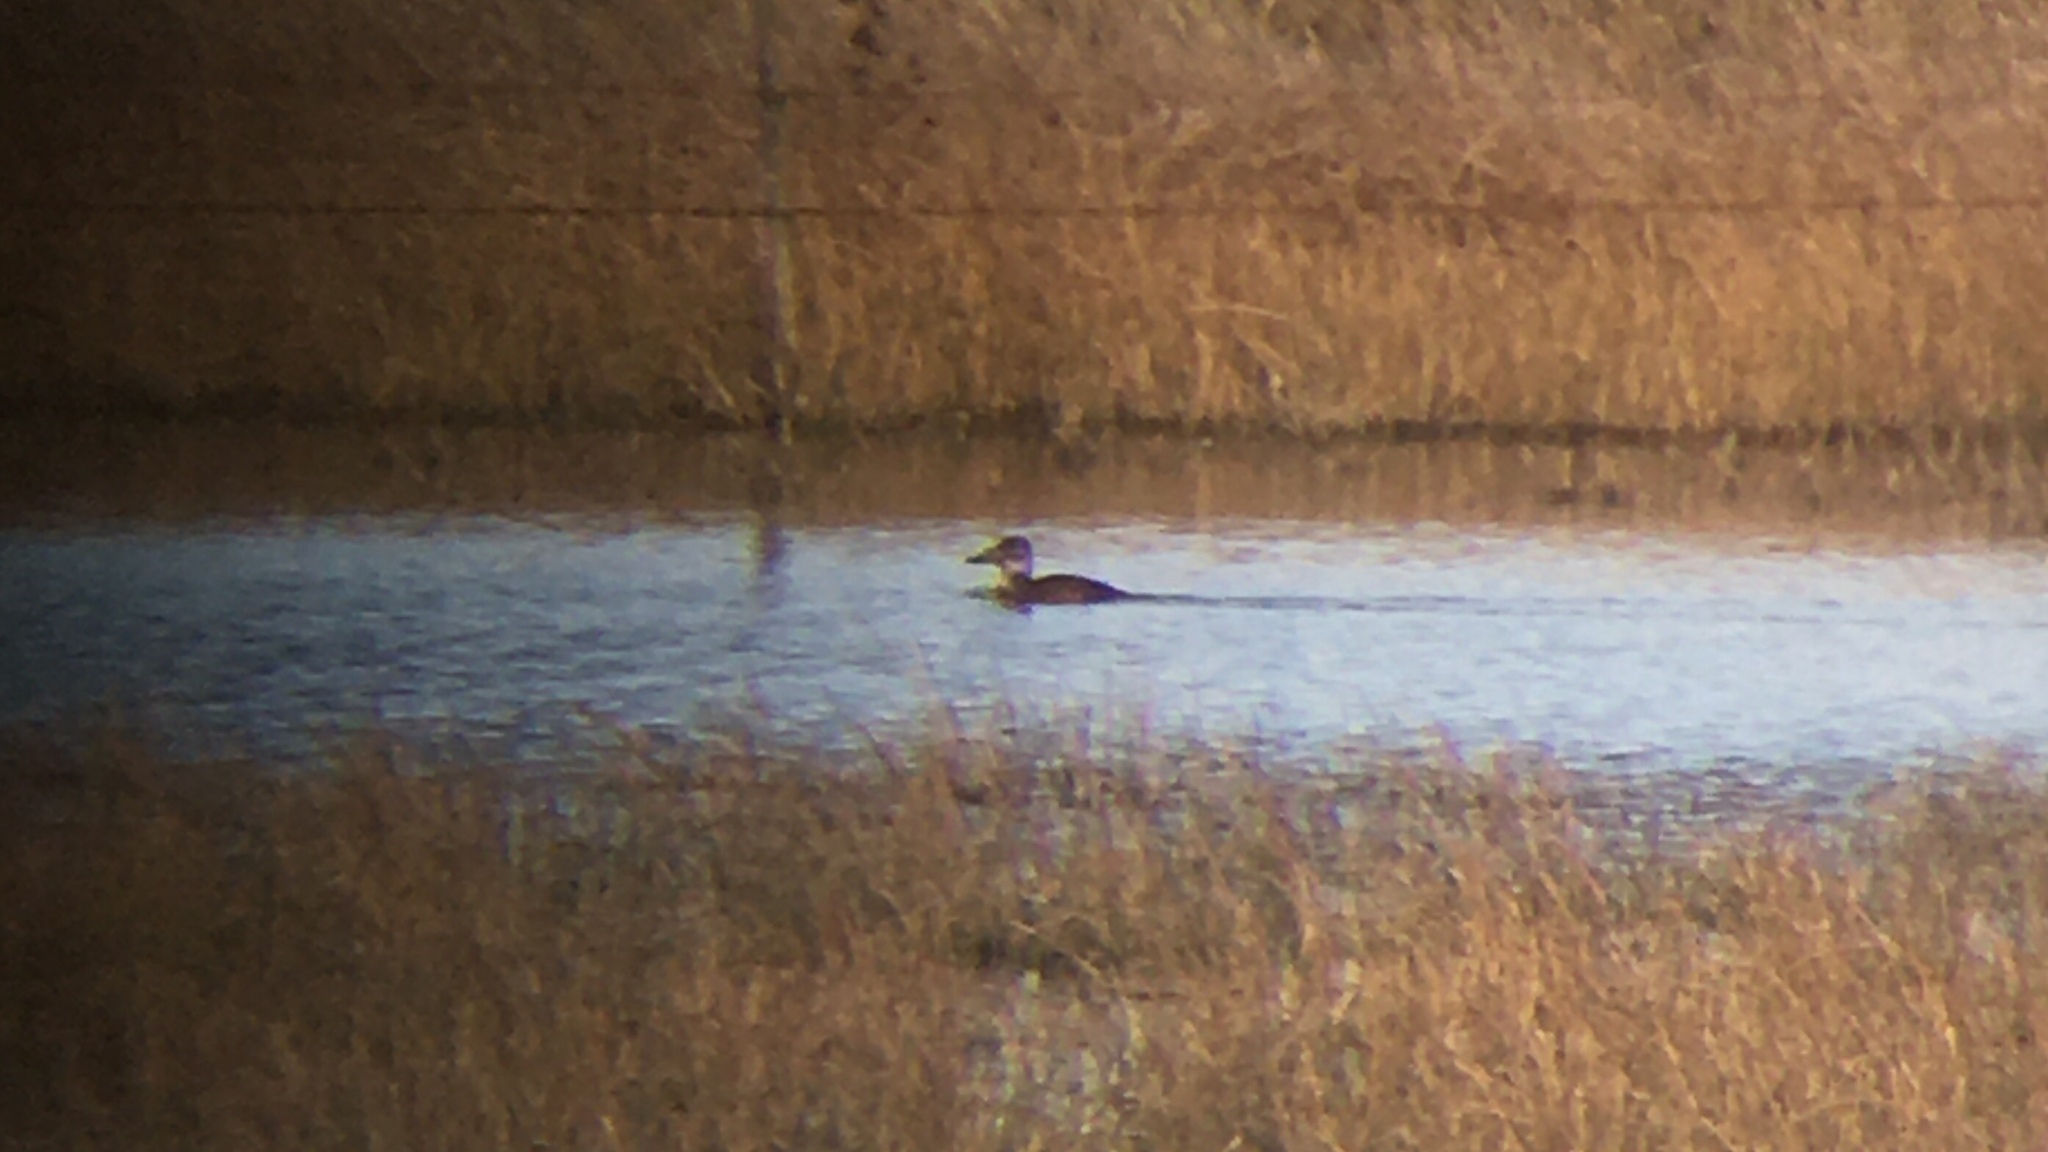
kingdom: Animalia
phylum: Chordata
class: Aves
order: Anseriformes
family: Anatidae
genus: Oxyura
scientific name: Oxyura vittata
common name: Lake duck
